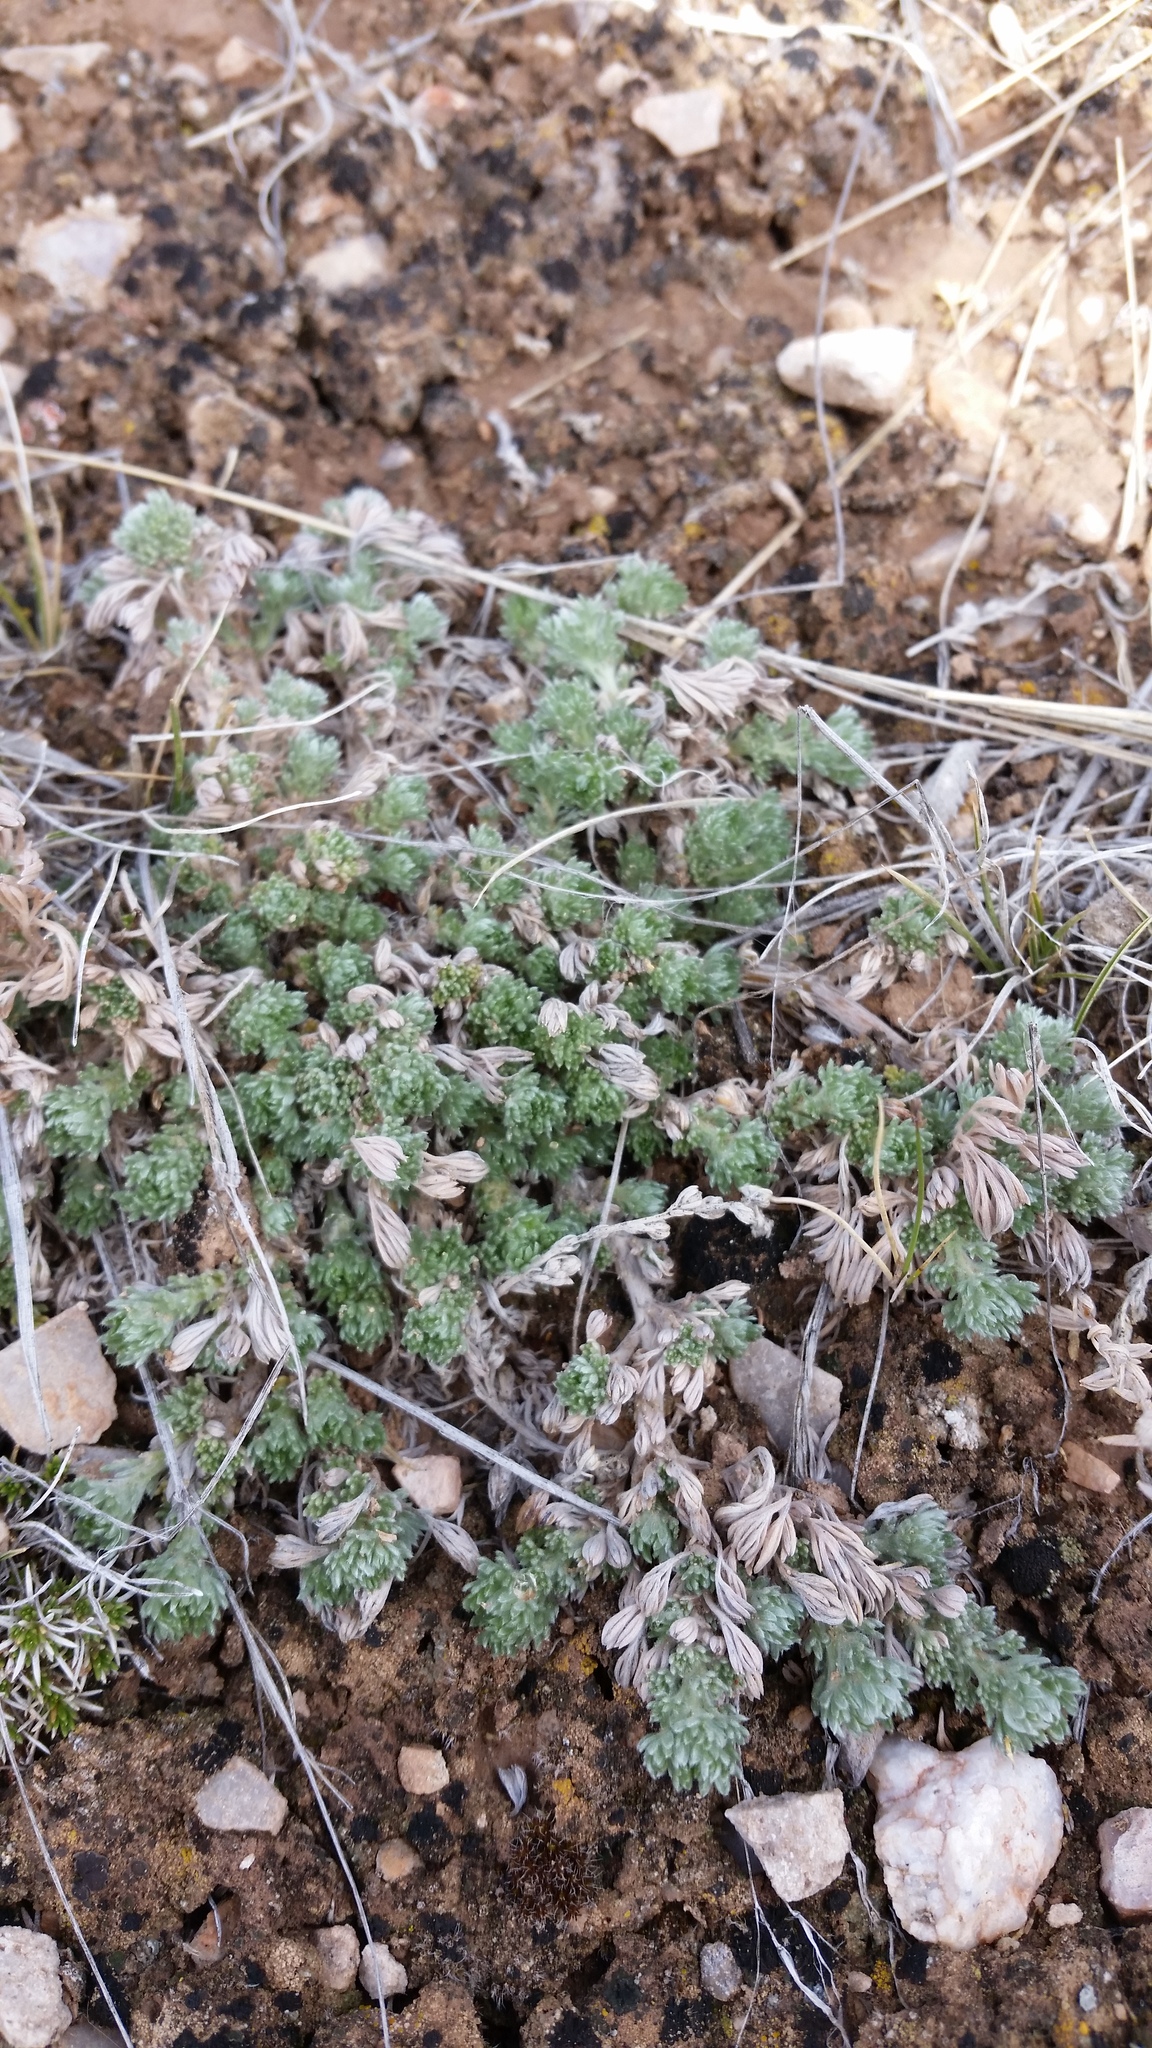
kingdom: Plantae
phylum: Tracheophyta
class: Magnoliopsida
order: Asterales
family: Asteraceae
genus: Artemisia
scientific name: Artemisia frigida
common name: Prairie sagewort
